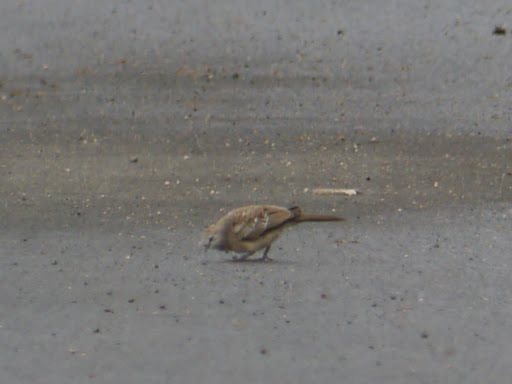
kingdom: Animalia
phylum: Chordata
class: Aves
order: Columbiformes
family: Columbidae
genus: Geopelia
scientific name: Geopelia striata
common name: Zebra dove
